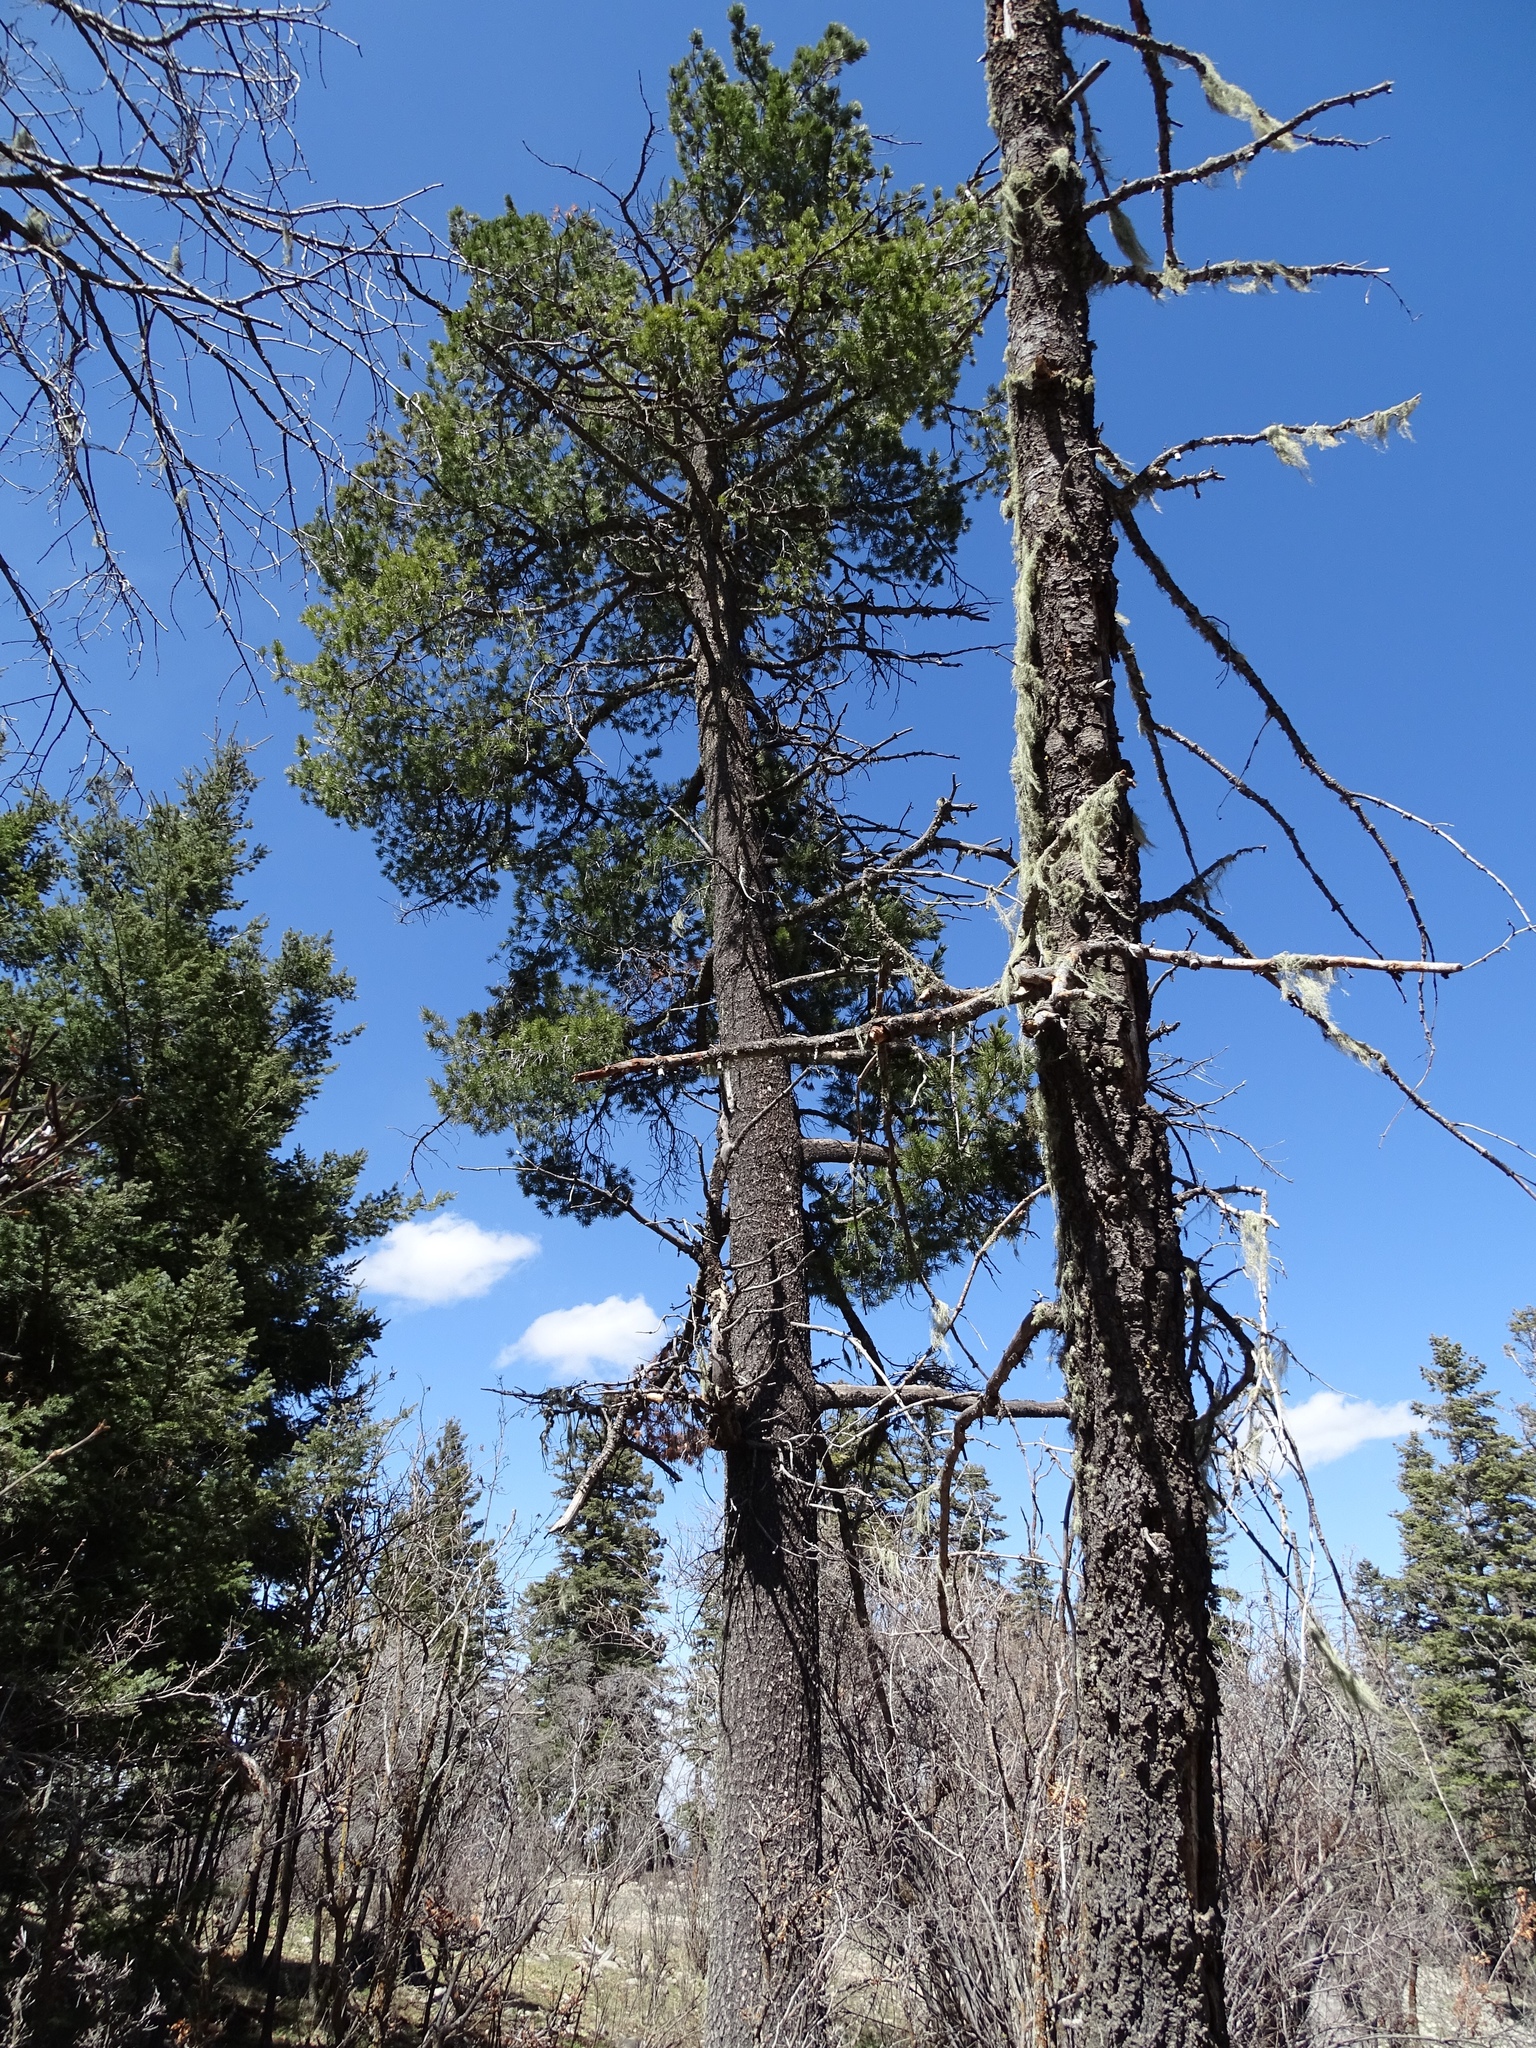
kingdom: Plantae
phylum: Tracheophyta
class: Pinopsida
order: Pinales
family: Pinaceae
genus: Pinus
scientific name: Pinus strobiformis
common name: Southwestern white pine
